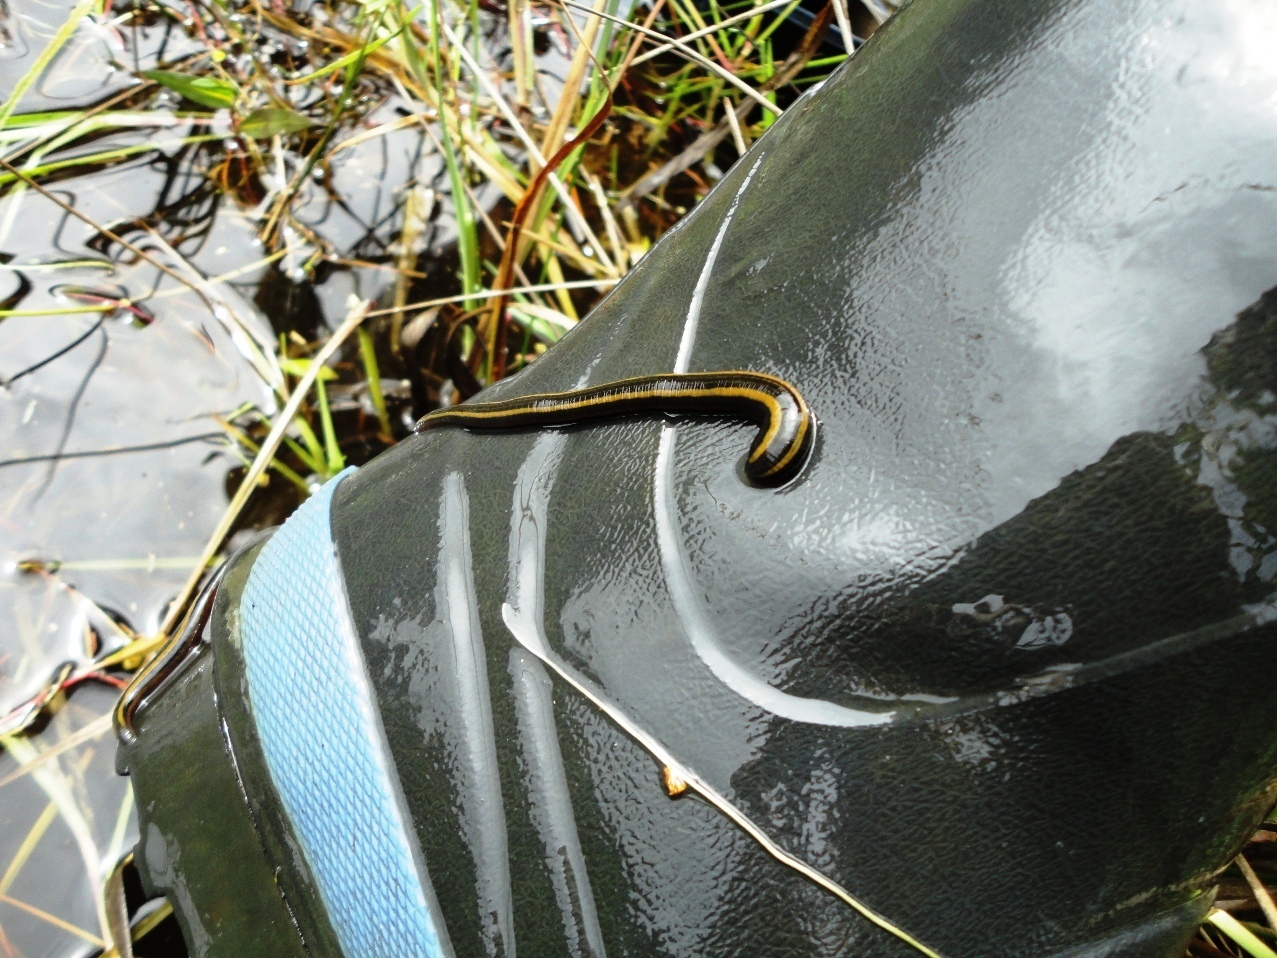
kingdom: Animalia
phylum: Annelida
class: Clitellata
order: Arhynchobdellida
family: Hirudinidae
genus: Richardsonianus
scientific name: Richardsonianus mauianus
